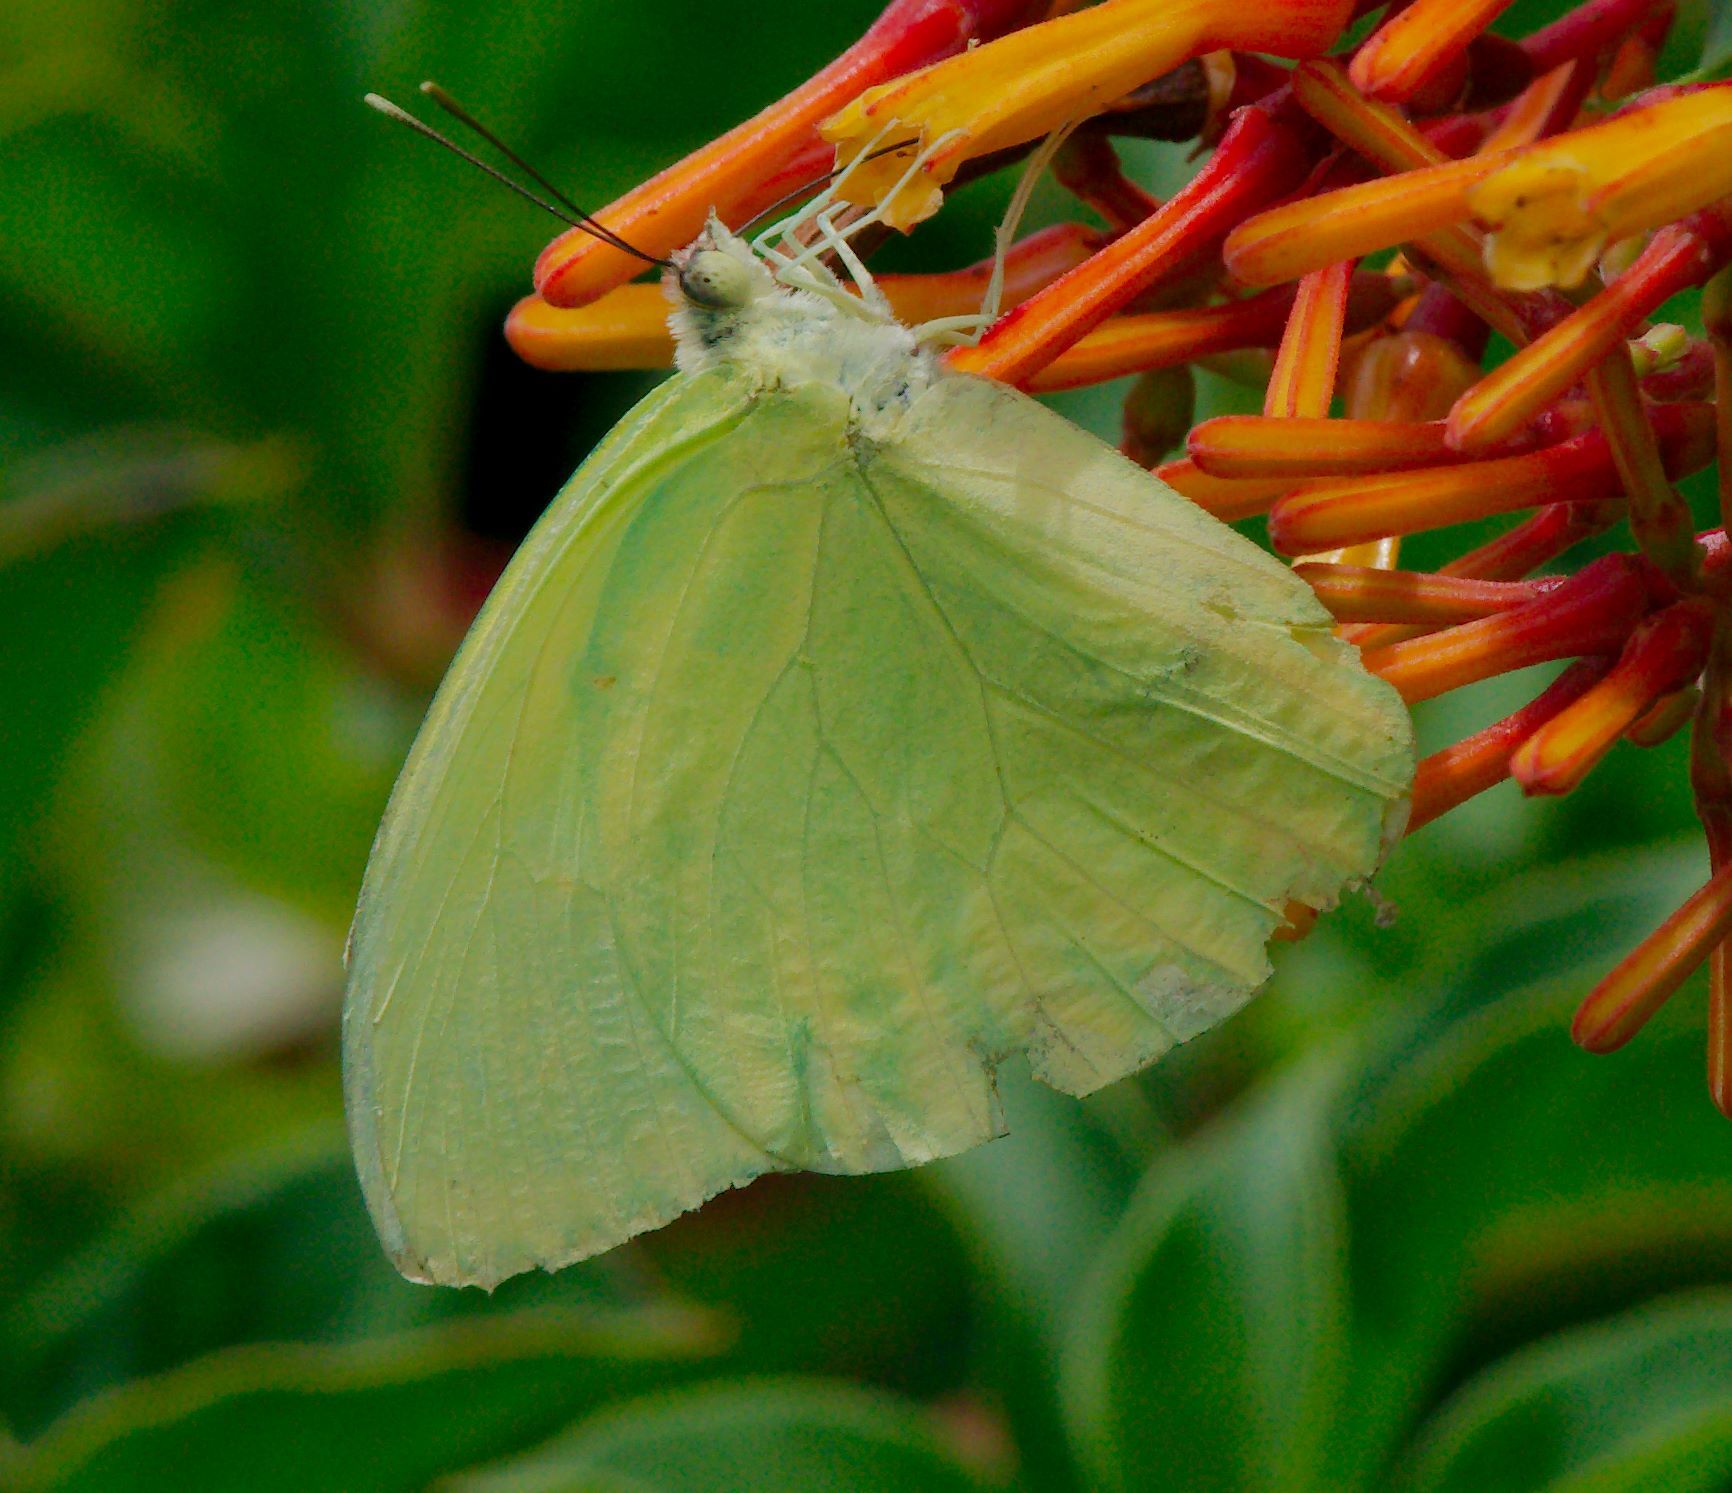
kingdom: Animalia
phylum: Arthropoda
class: Insecta
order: Lepidoptera
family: Pieridae
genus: Aphrissa
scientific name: Aphrissa statira
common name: Statira sulphur
